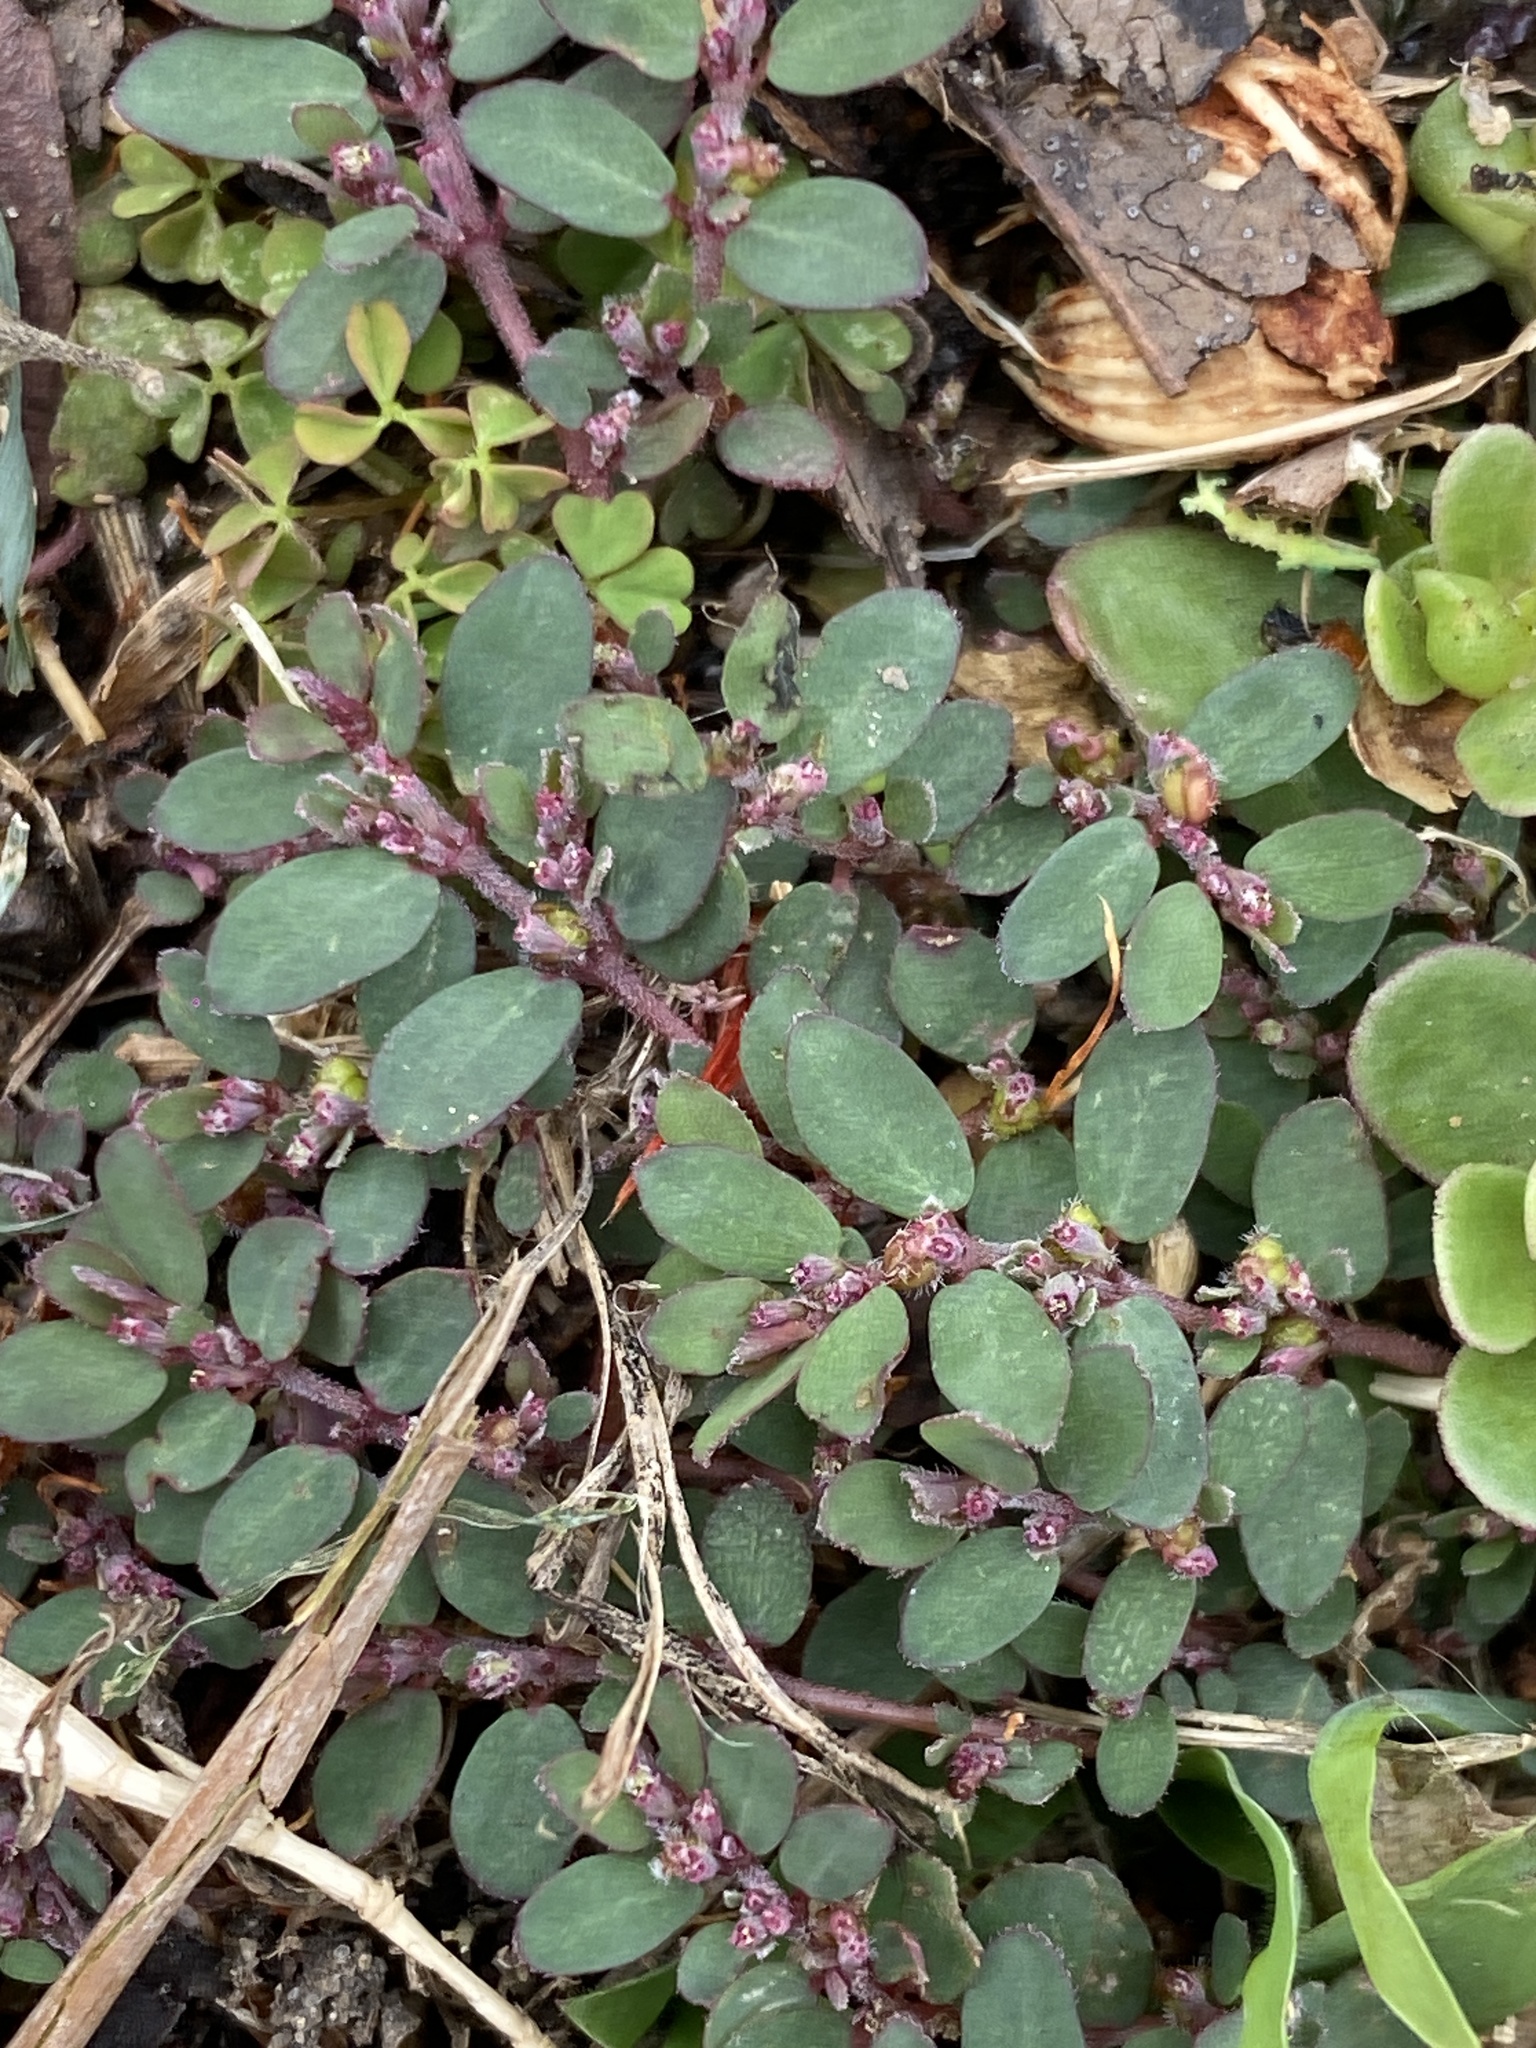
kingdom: Plantae
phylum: Tracheophyta
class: Magnoliopsida
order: Malpighiales
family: Euphorbiaceae
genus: Euphorbia
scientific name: Euphorbia prostrata
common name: Prostrate sandmat
